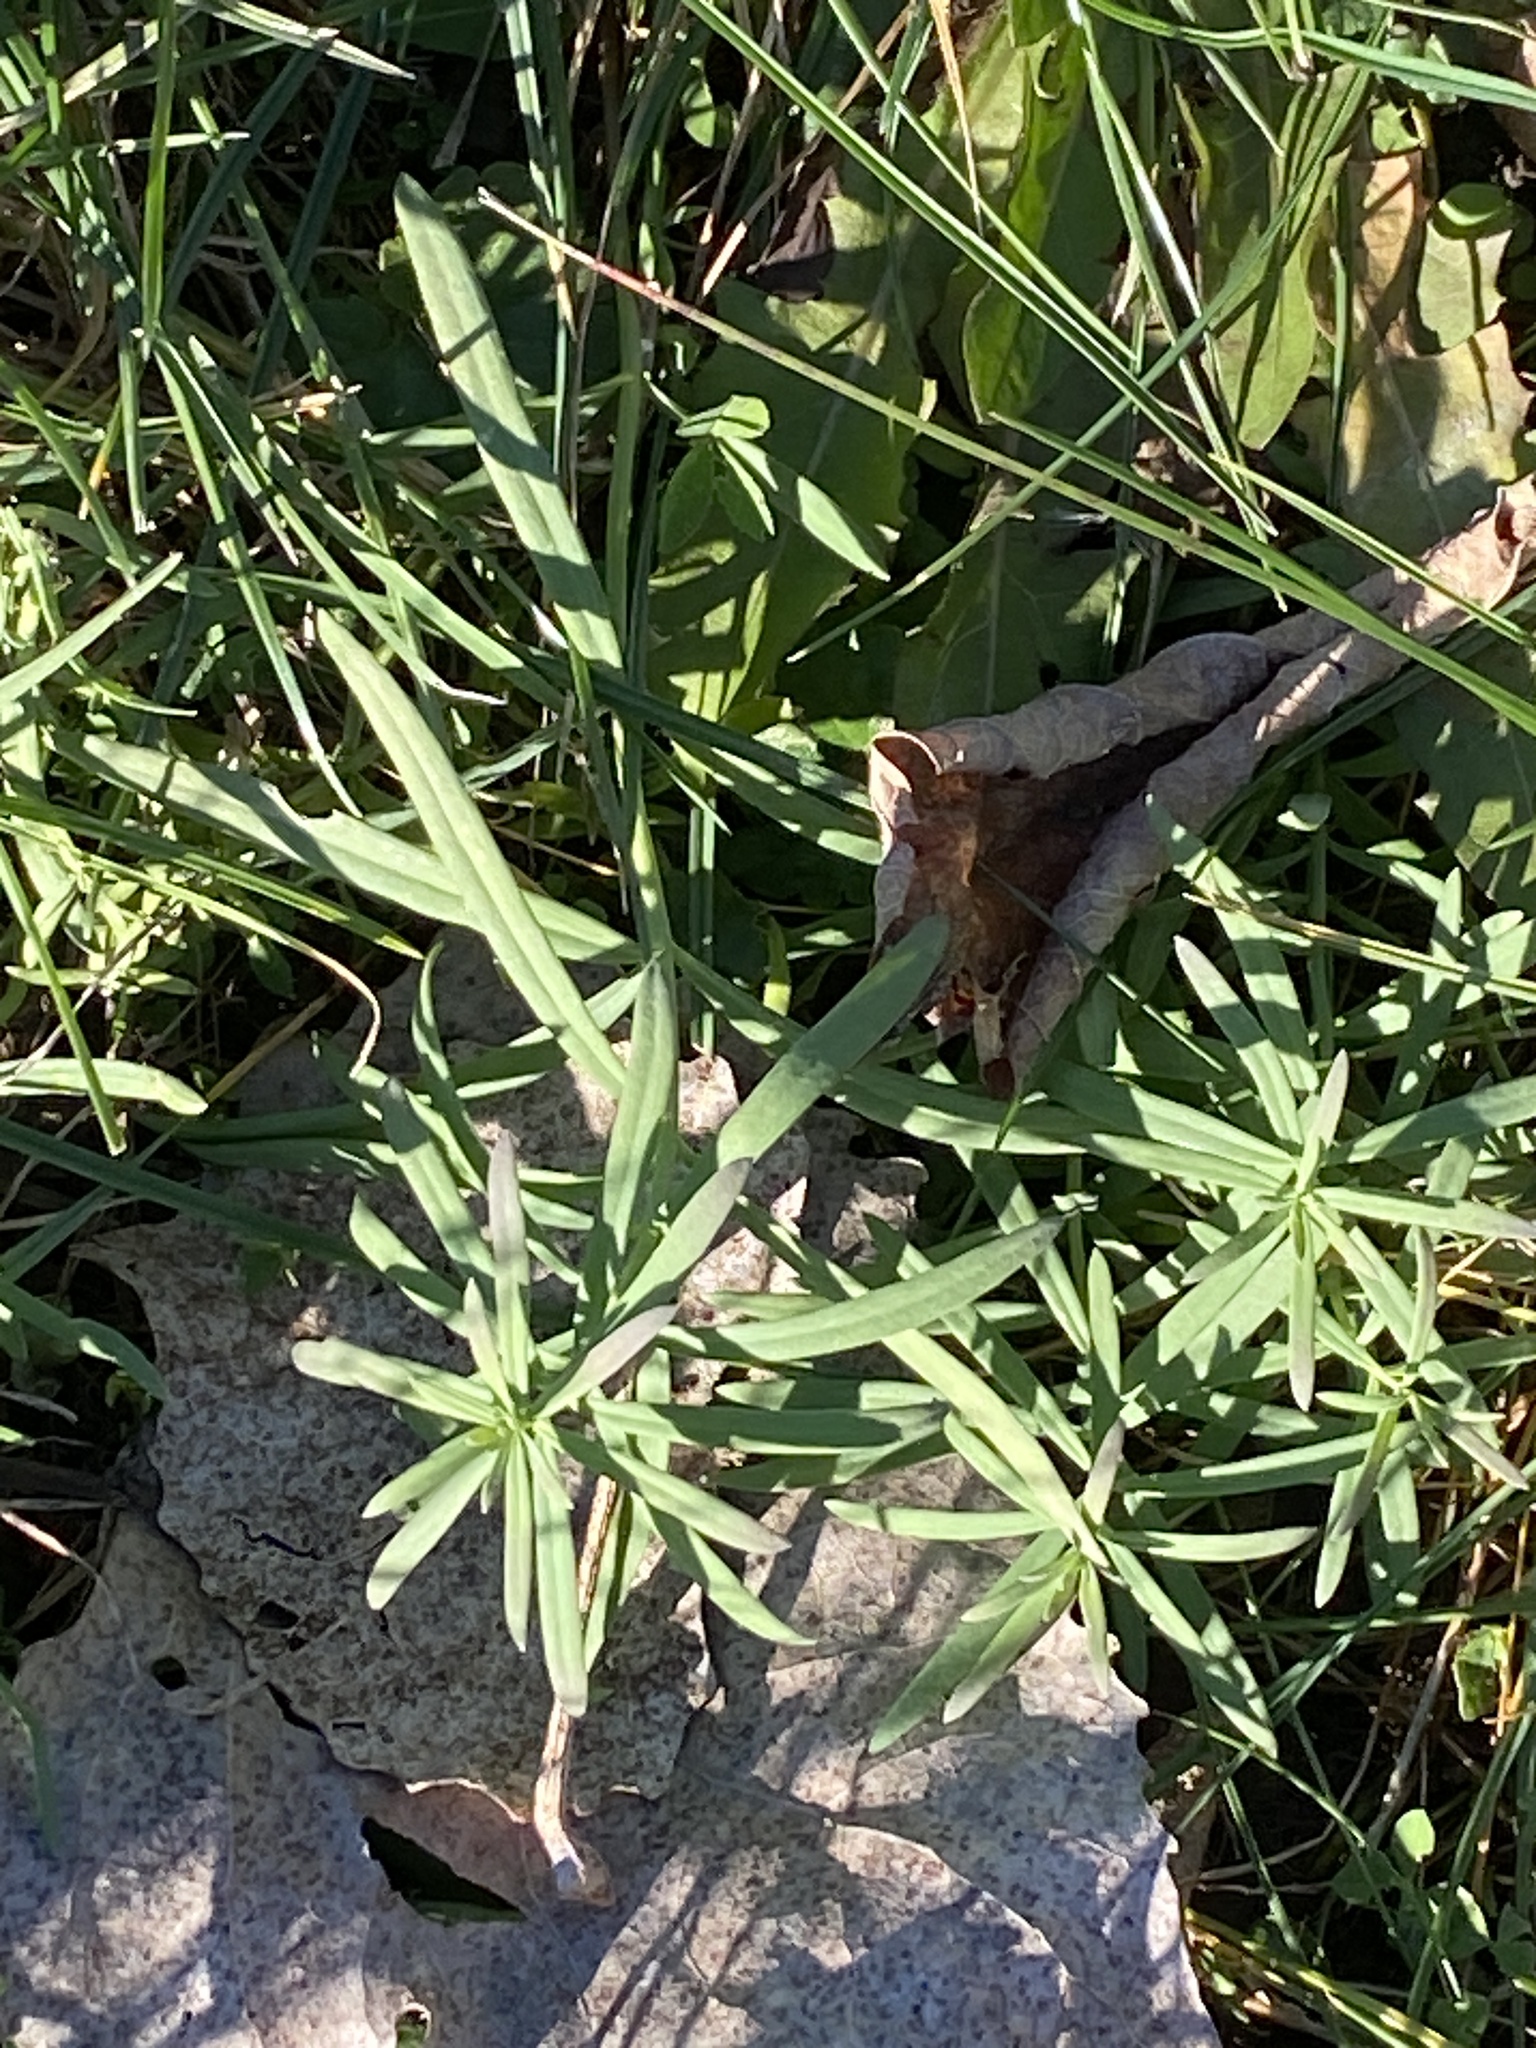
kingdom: Plantae
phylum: Tracheophyta
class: Magnoliopsida
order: Lamiales
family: Plantaginaceae
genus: Linaria
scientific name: Linaria vulgaris
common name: Butter and eggs
